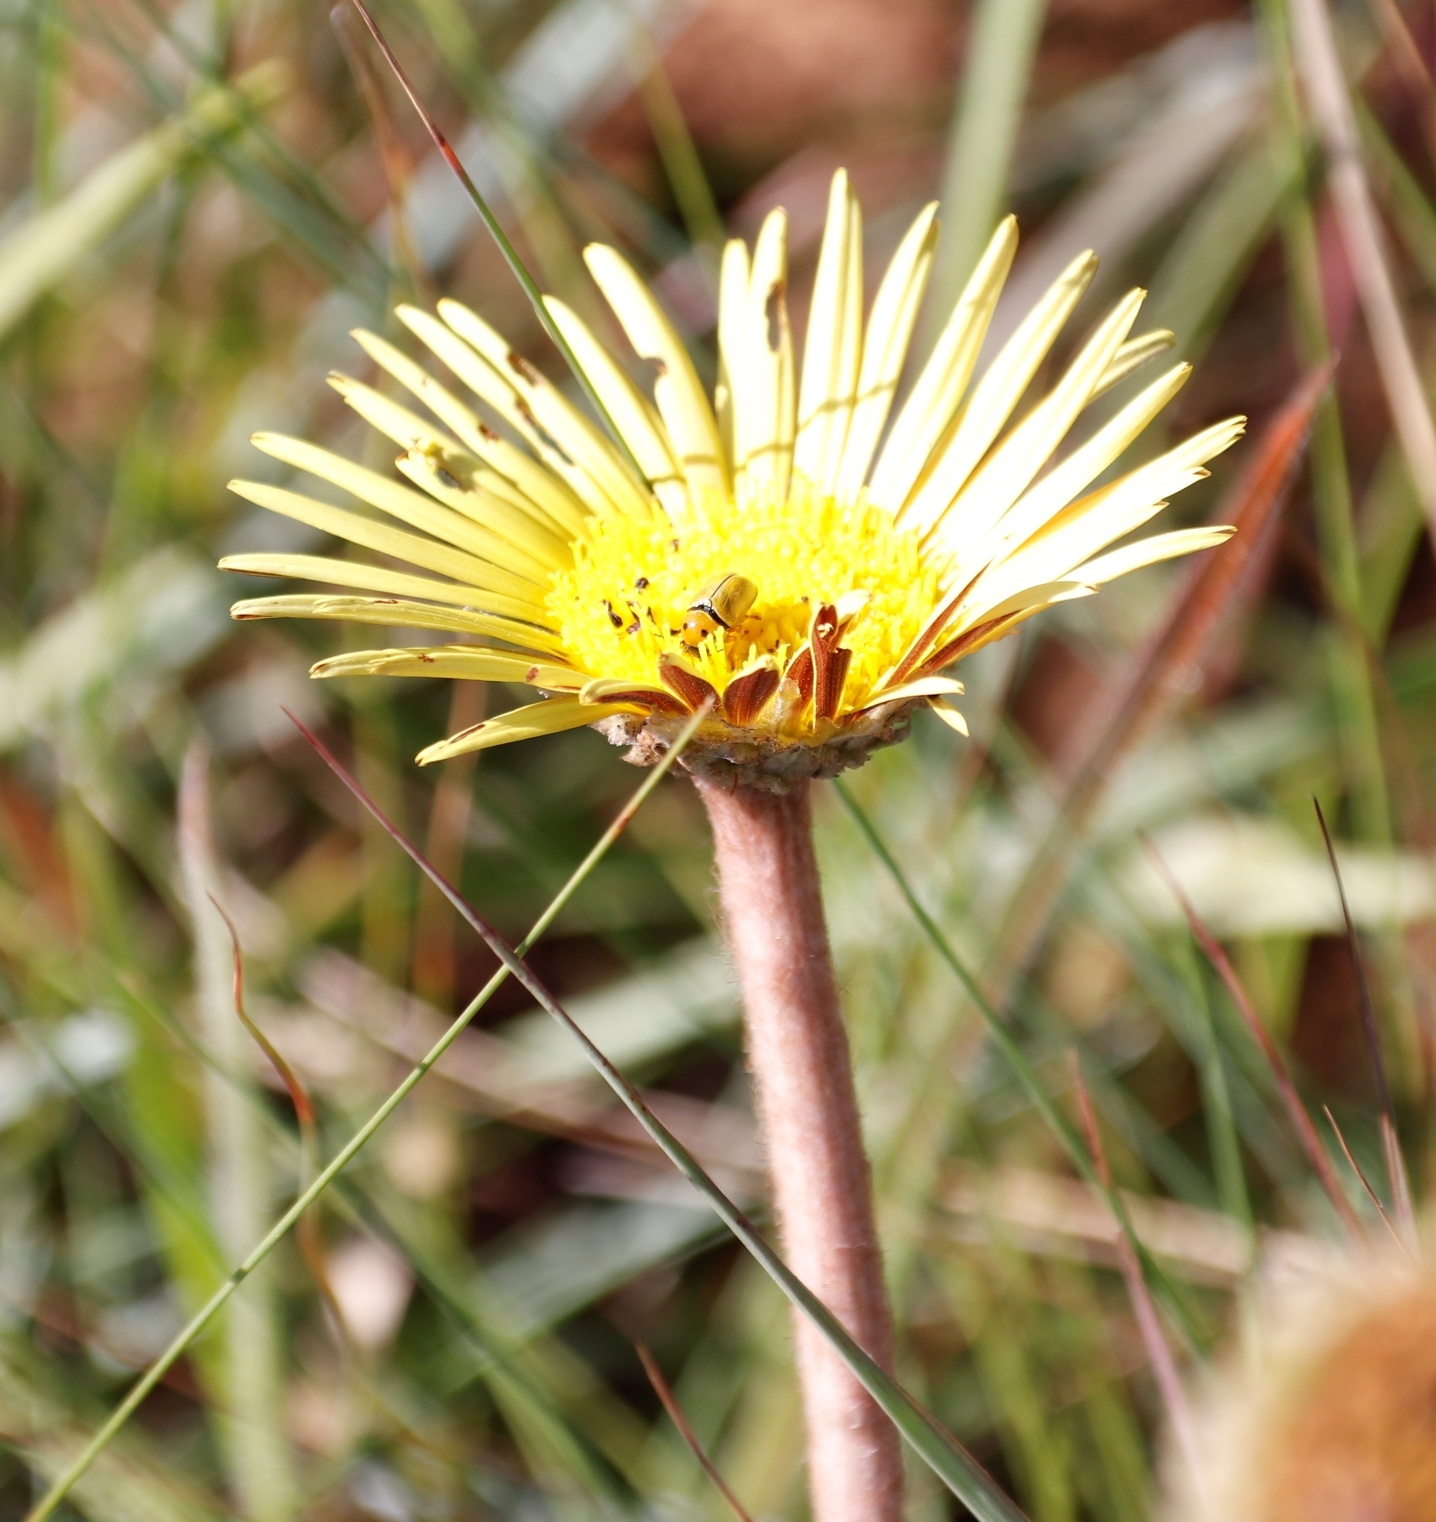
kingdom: Plantae
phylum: Tracheophyta
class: Magnoliopsida
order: Asterales
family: Asteraceae
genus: Piloselloides
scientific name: Piloselloides hirsuta
